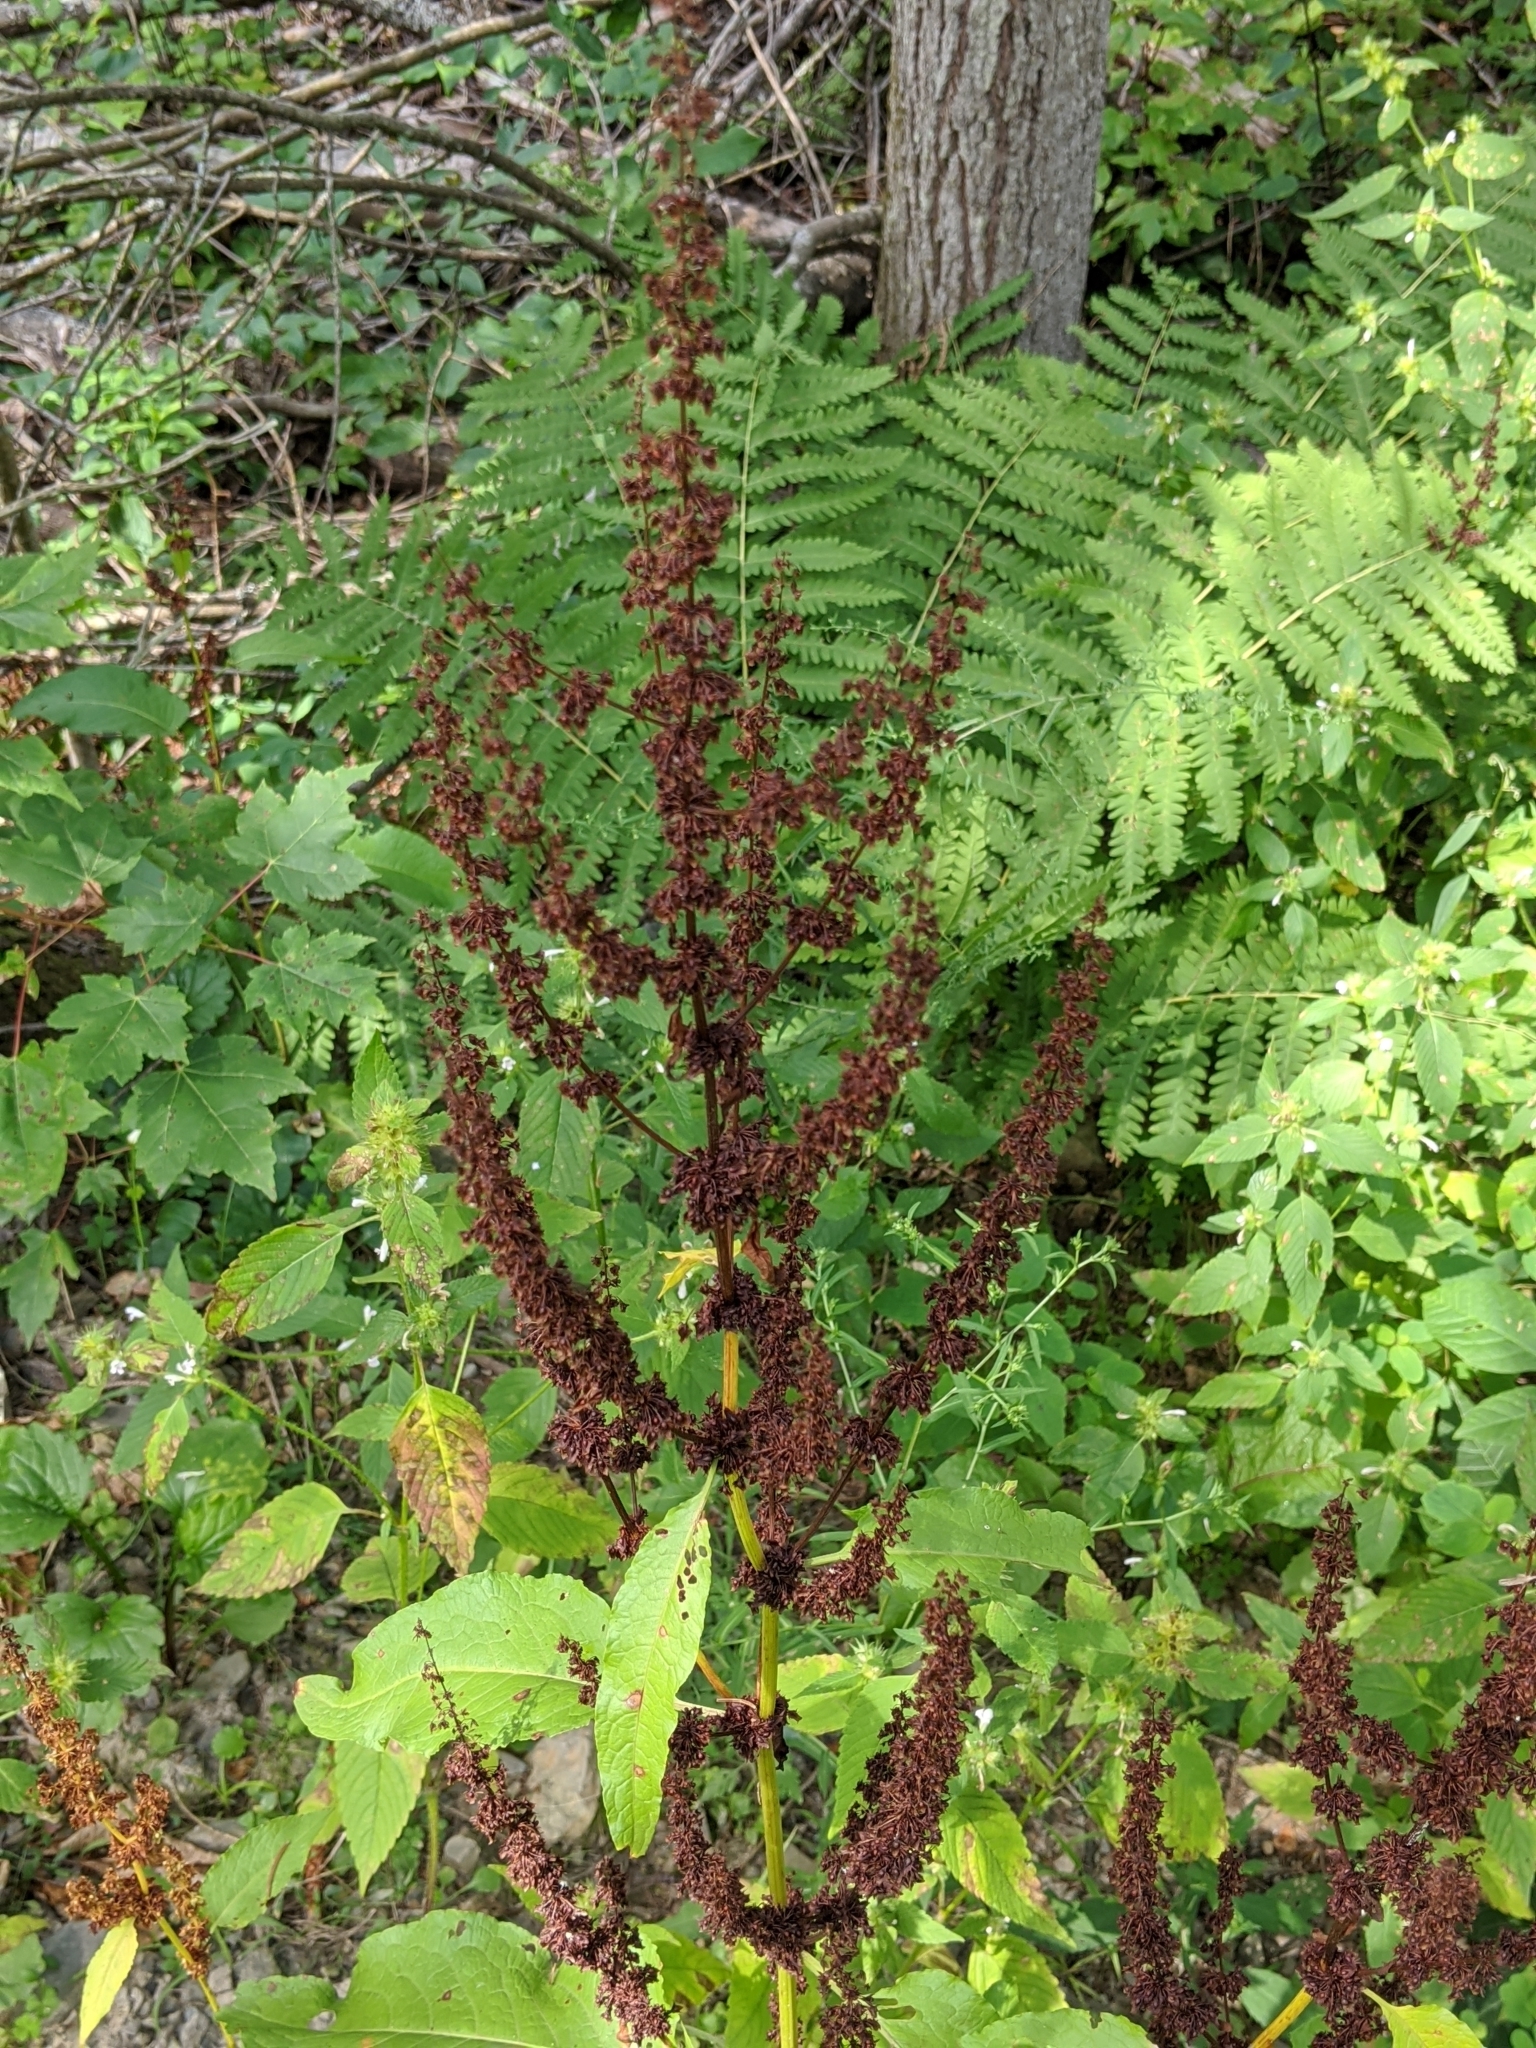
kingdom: Plantae
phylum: Tracheophyta
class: Magnoliopsida
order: Caryophyllales
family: Polygonaceae
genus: Rumex
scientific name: Rumex obtusifolius
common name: Bitter dock
